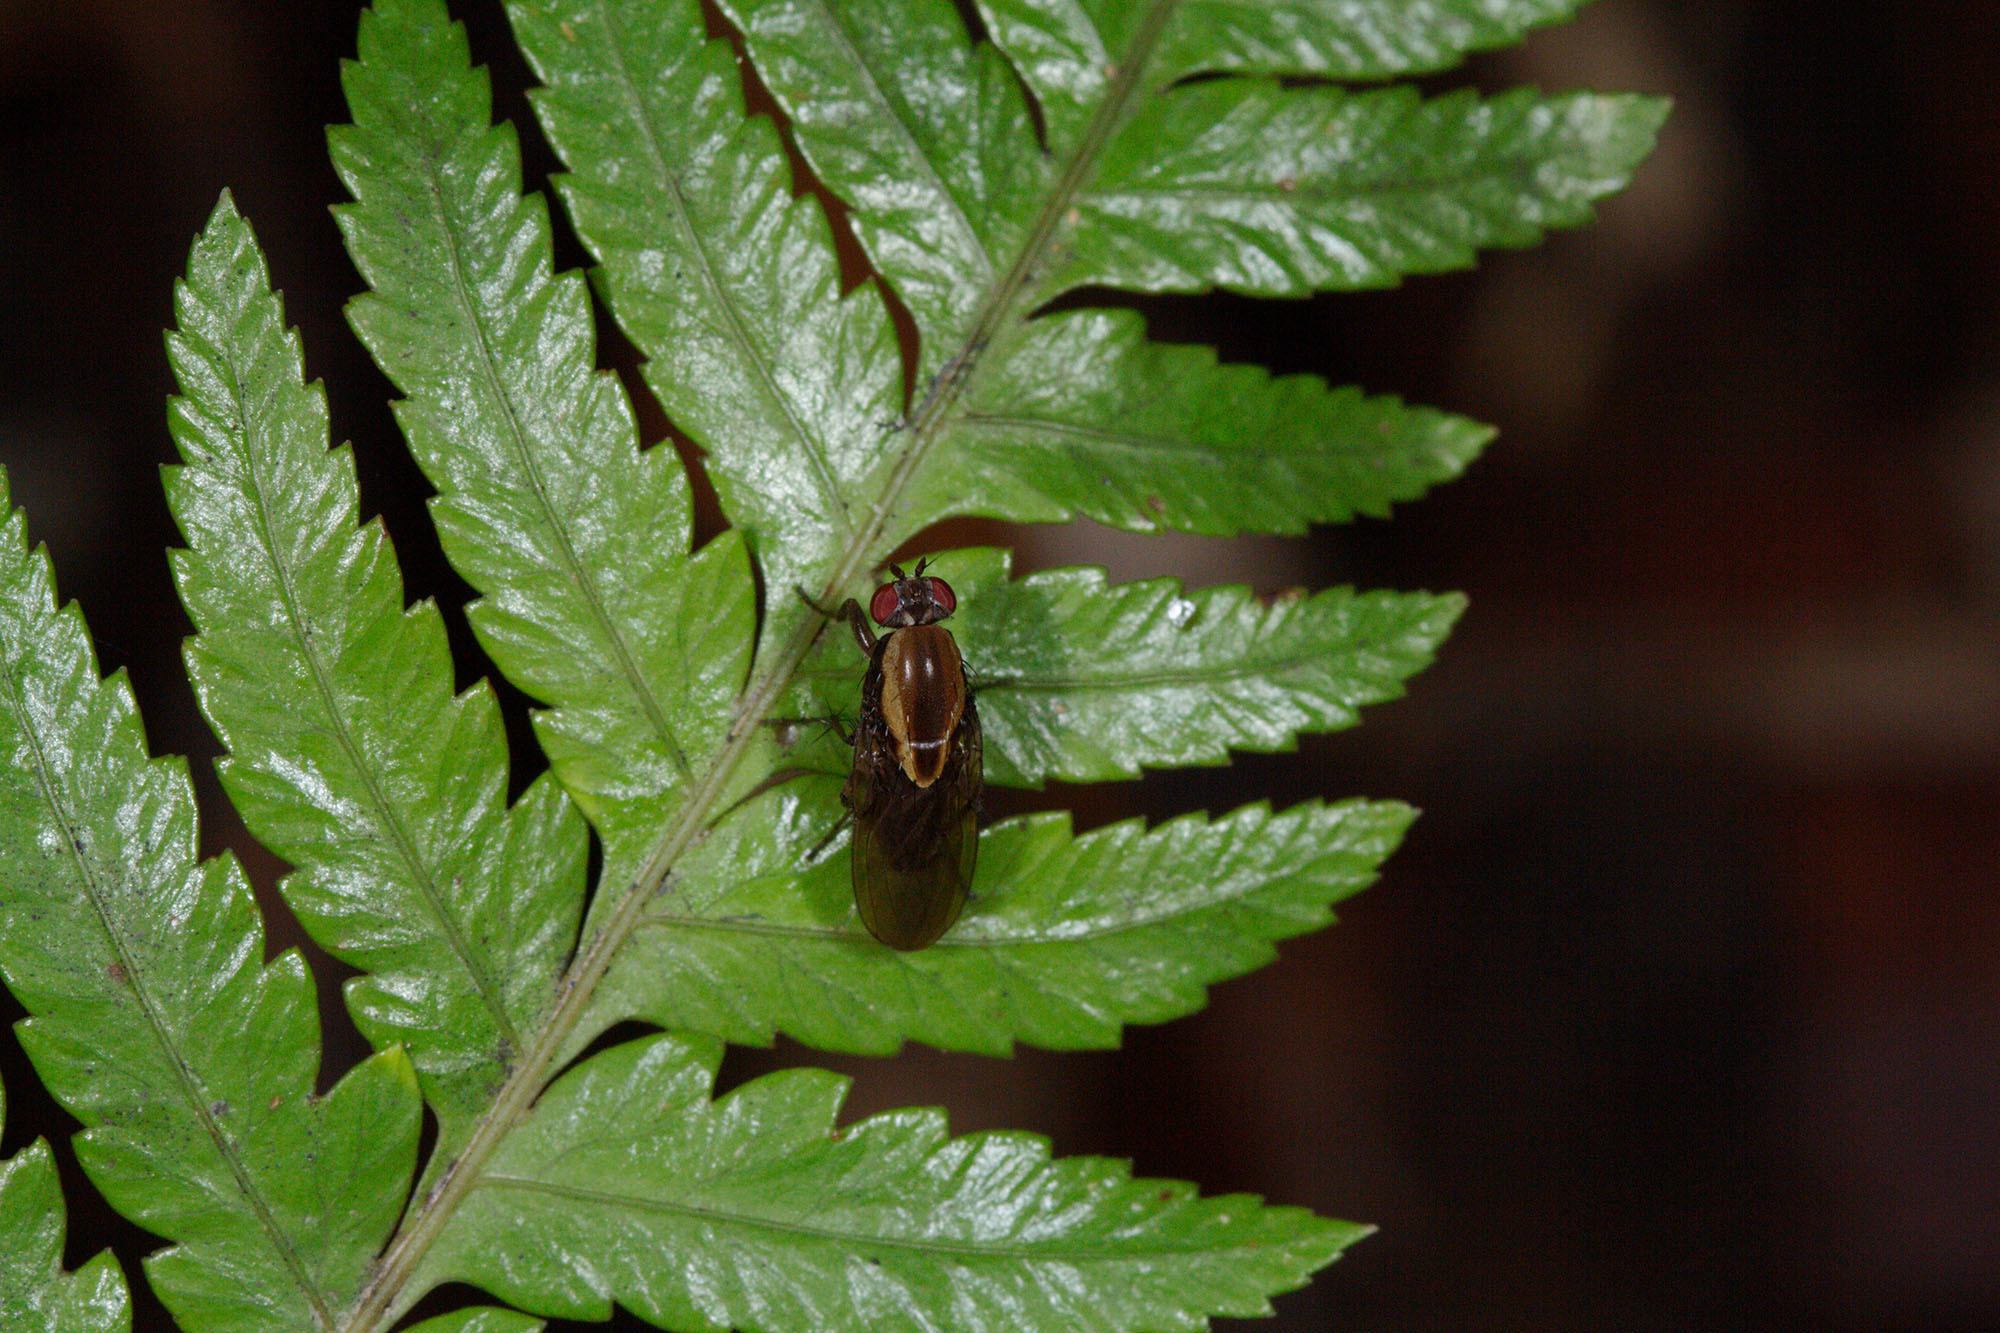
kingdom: Animalia
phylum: Arthropoda
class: Insecta
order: Diptera
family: Heleomyzidae
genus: Allophylopsis
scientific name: Allophylopsis scutellata
